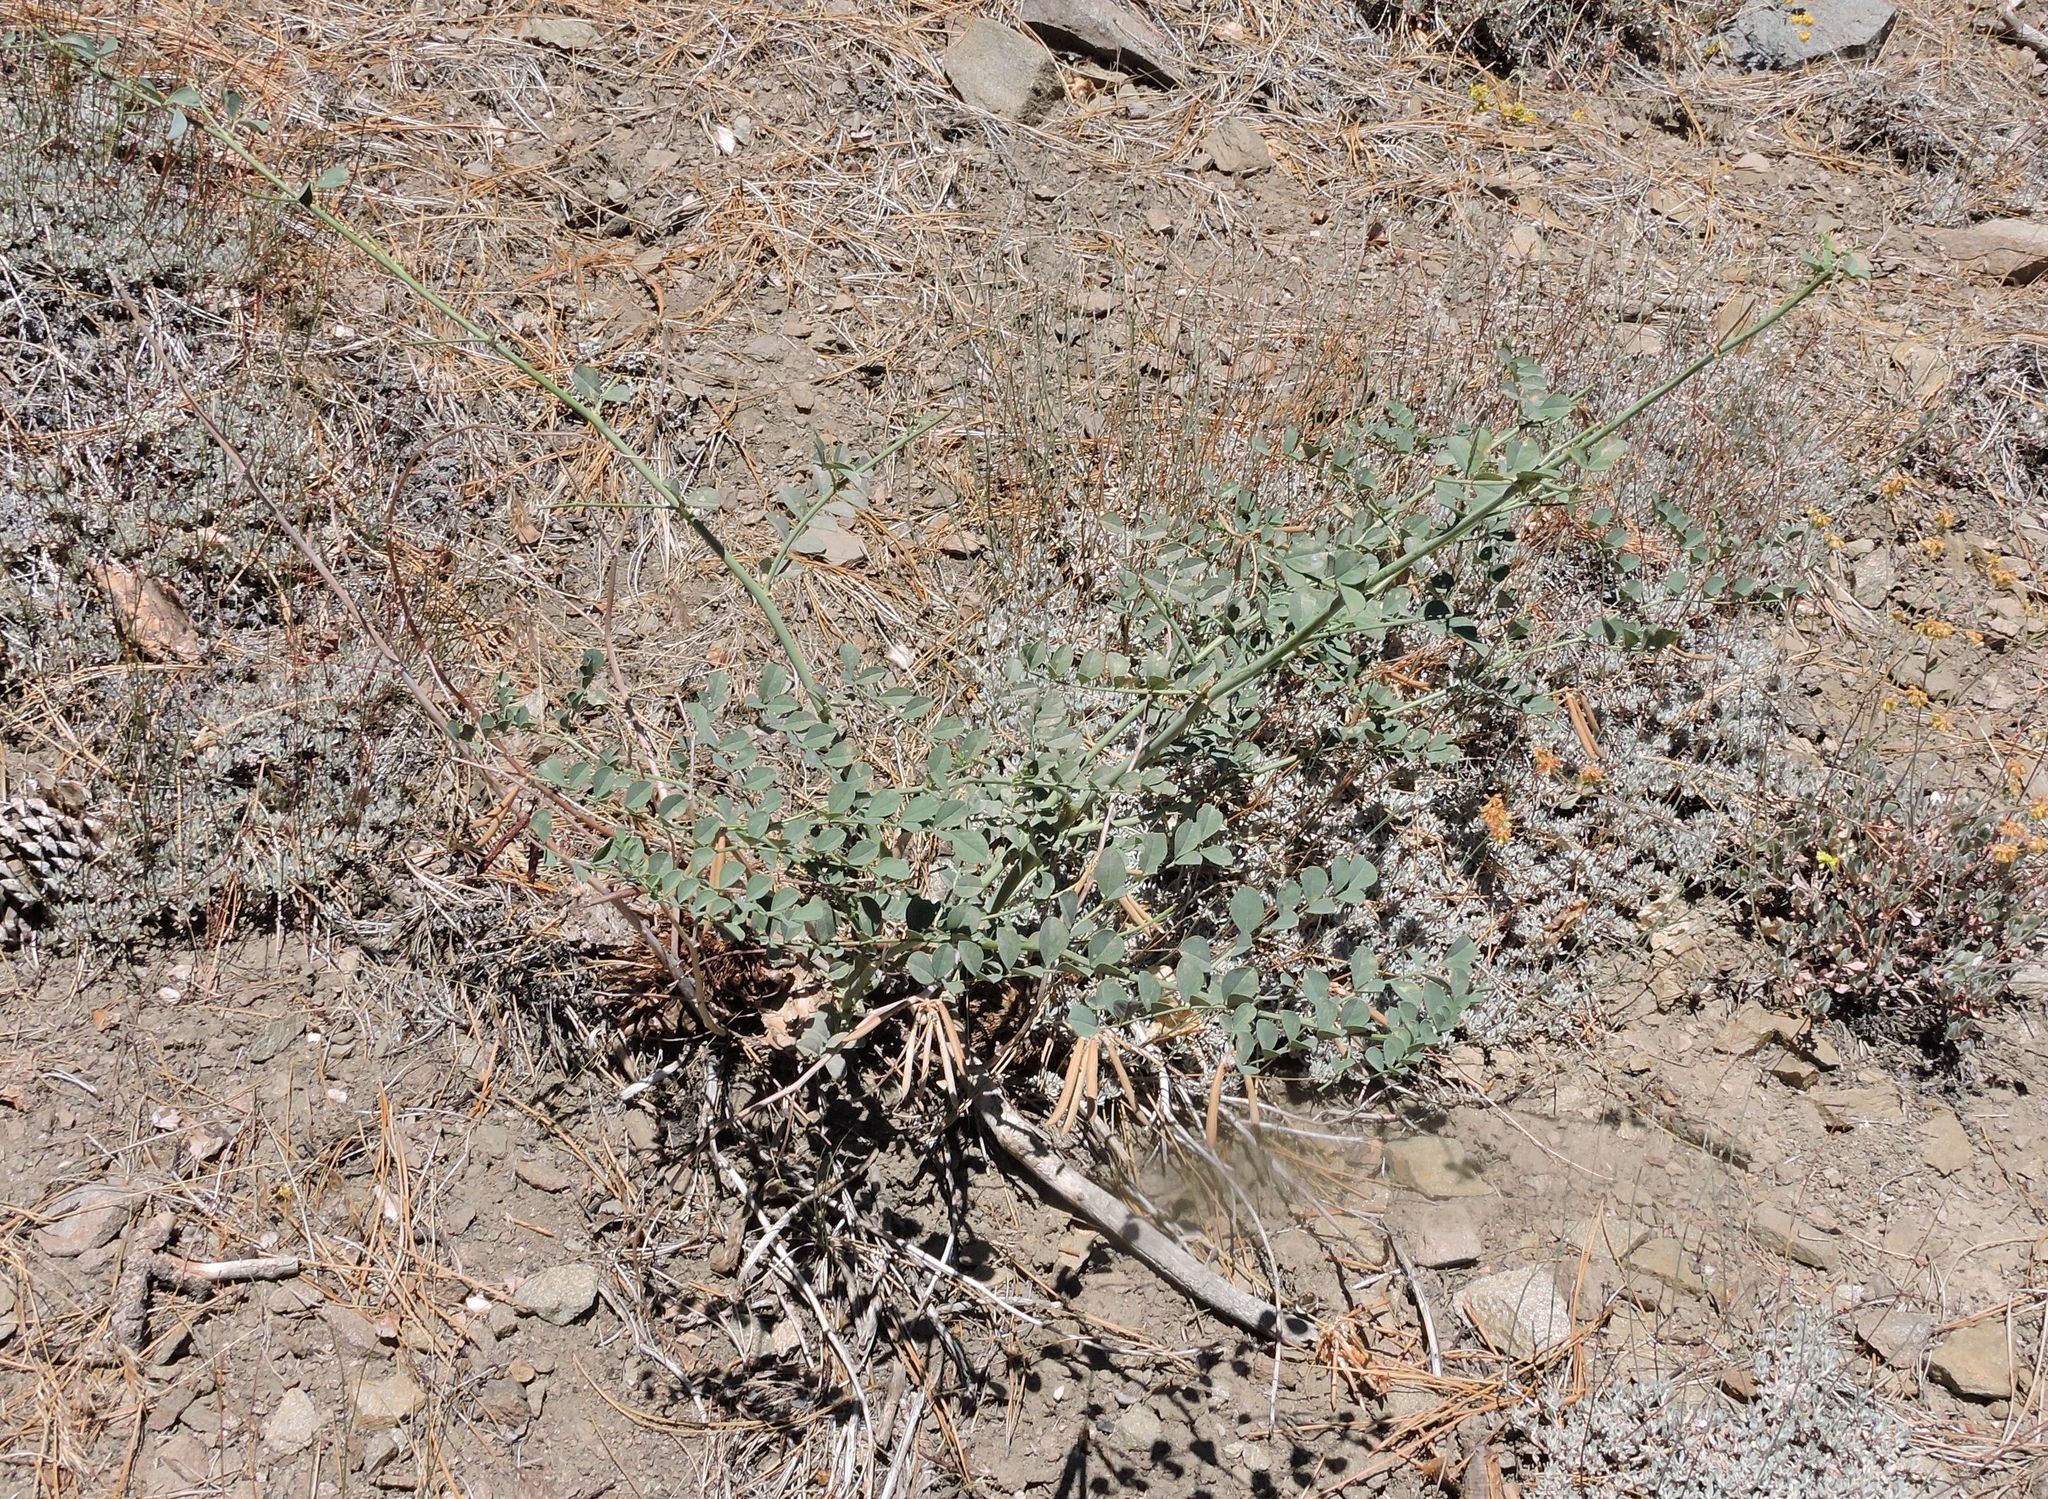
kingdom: Plantae
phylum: Tracheophyta
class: Magnoliopsida
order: Fabales
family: Fabaceae
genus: Hosackia
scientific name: Hosackia crassifolia
